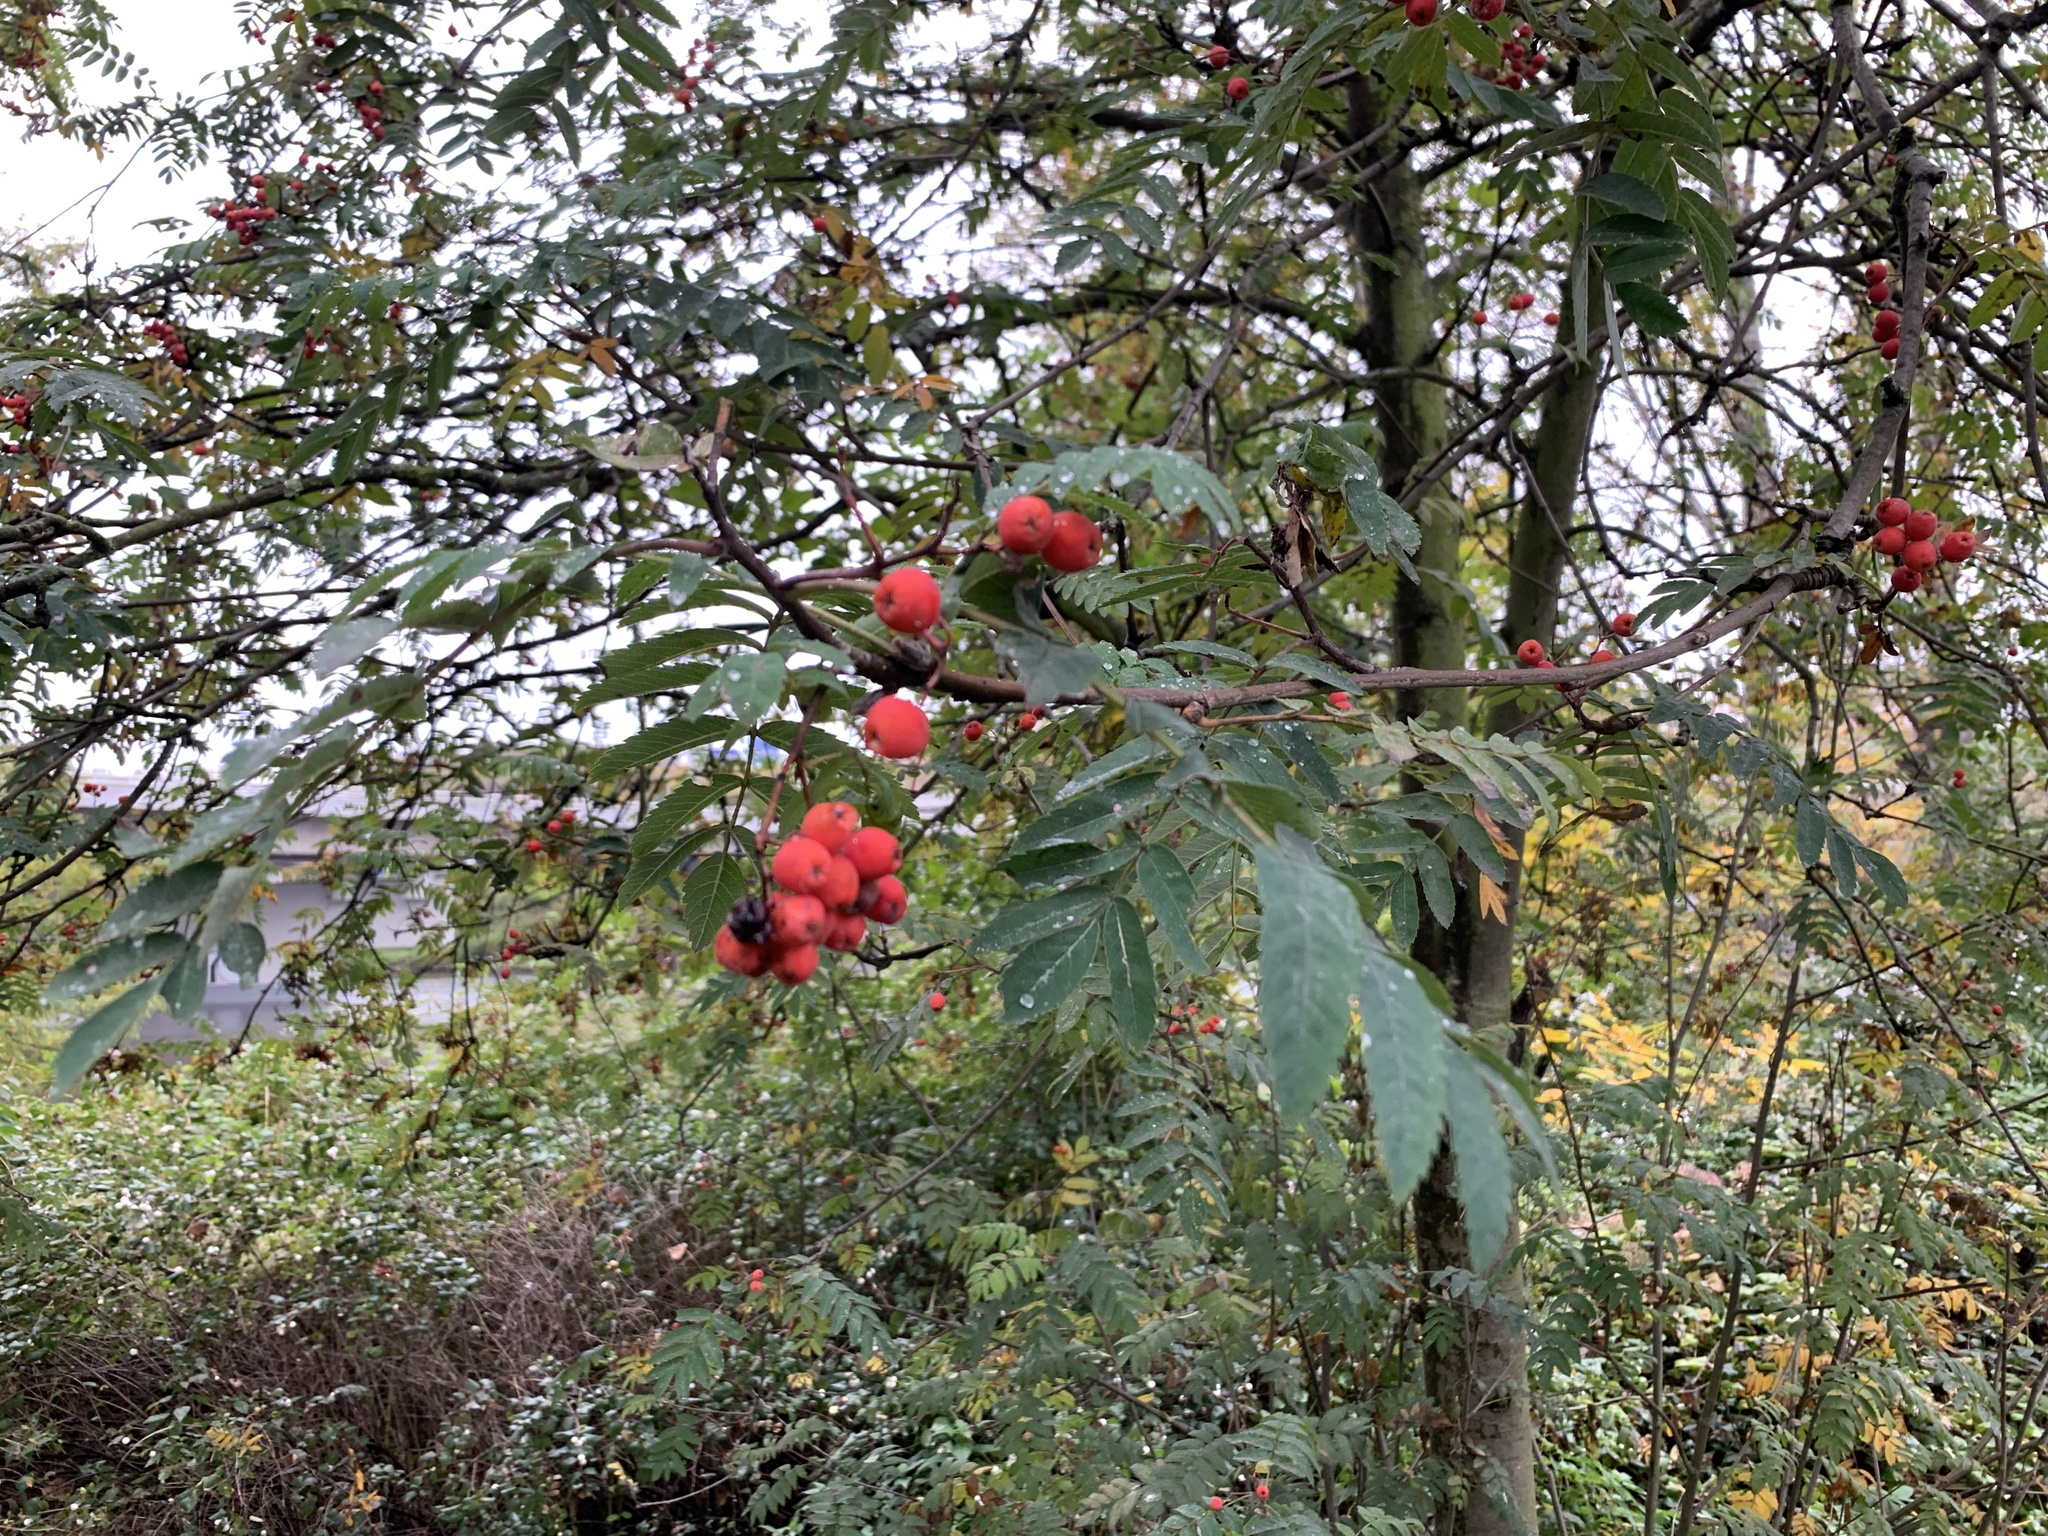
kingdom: Plantae
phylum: Tracheophyta
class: Magnoliopsida
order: Rosales
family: Rosaceae
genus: Sorbus
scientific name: Sorbus aucuparia
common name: Rowan
